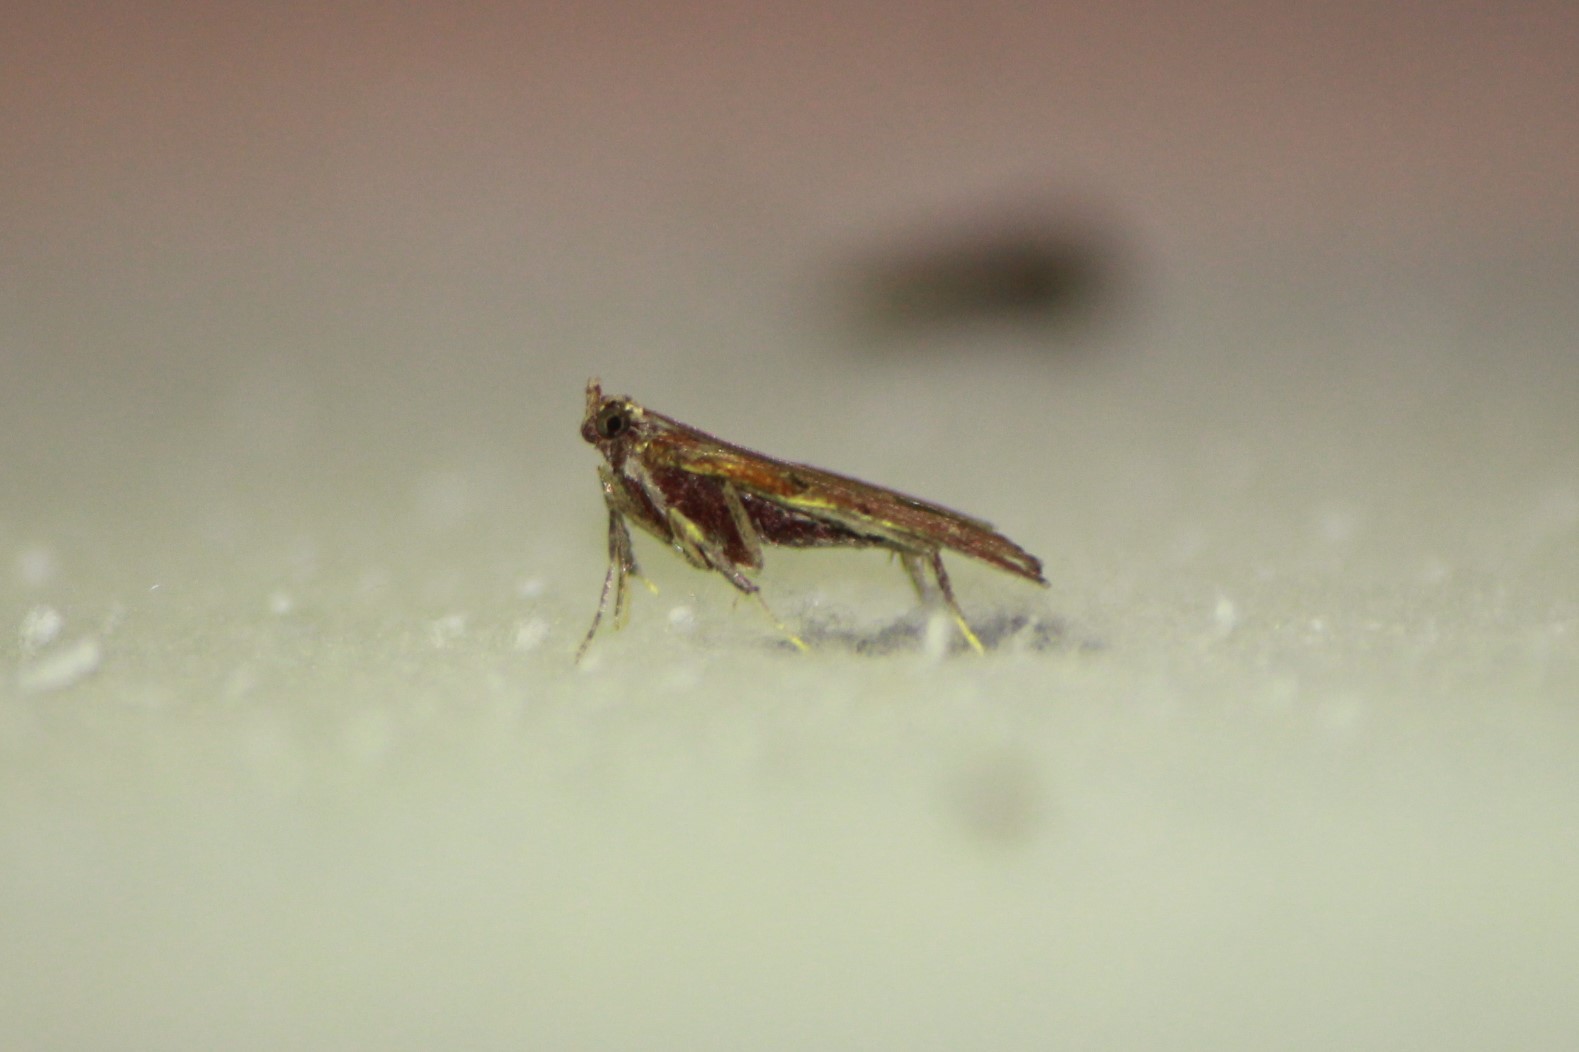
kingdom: Animalia
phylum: Arthropoda
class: Insecta
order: Lepidoptera
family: Pyralidae
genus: Galasa
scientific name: Galasa nigrinodis
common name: Boxwood leaftier moth
